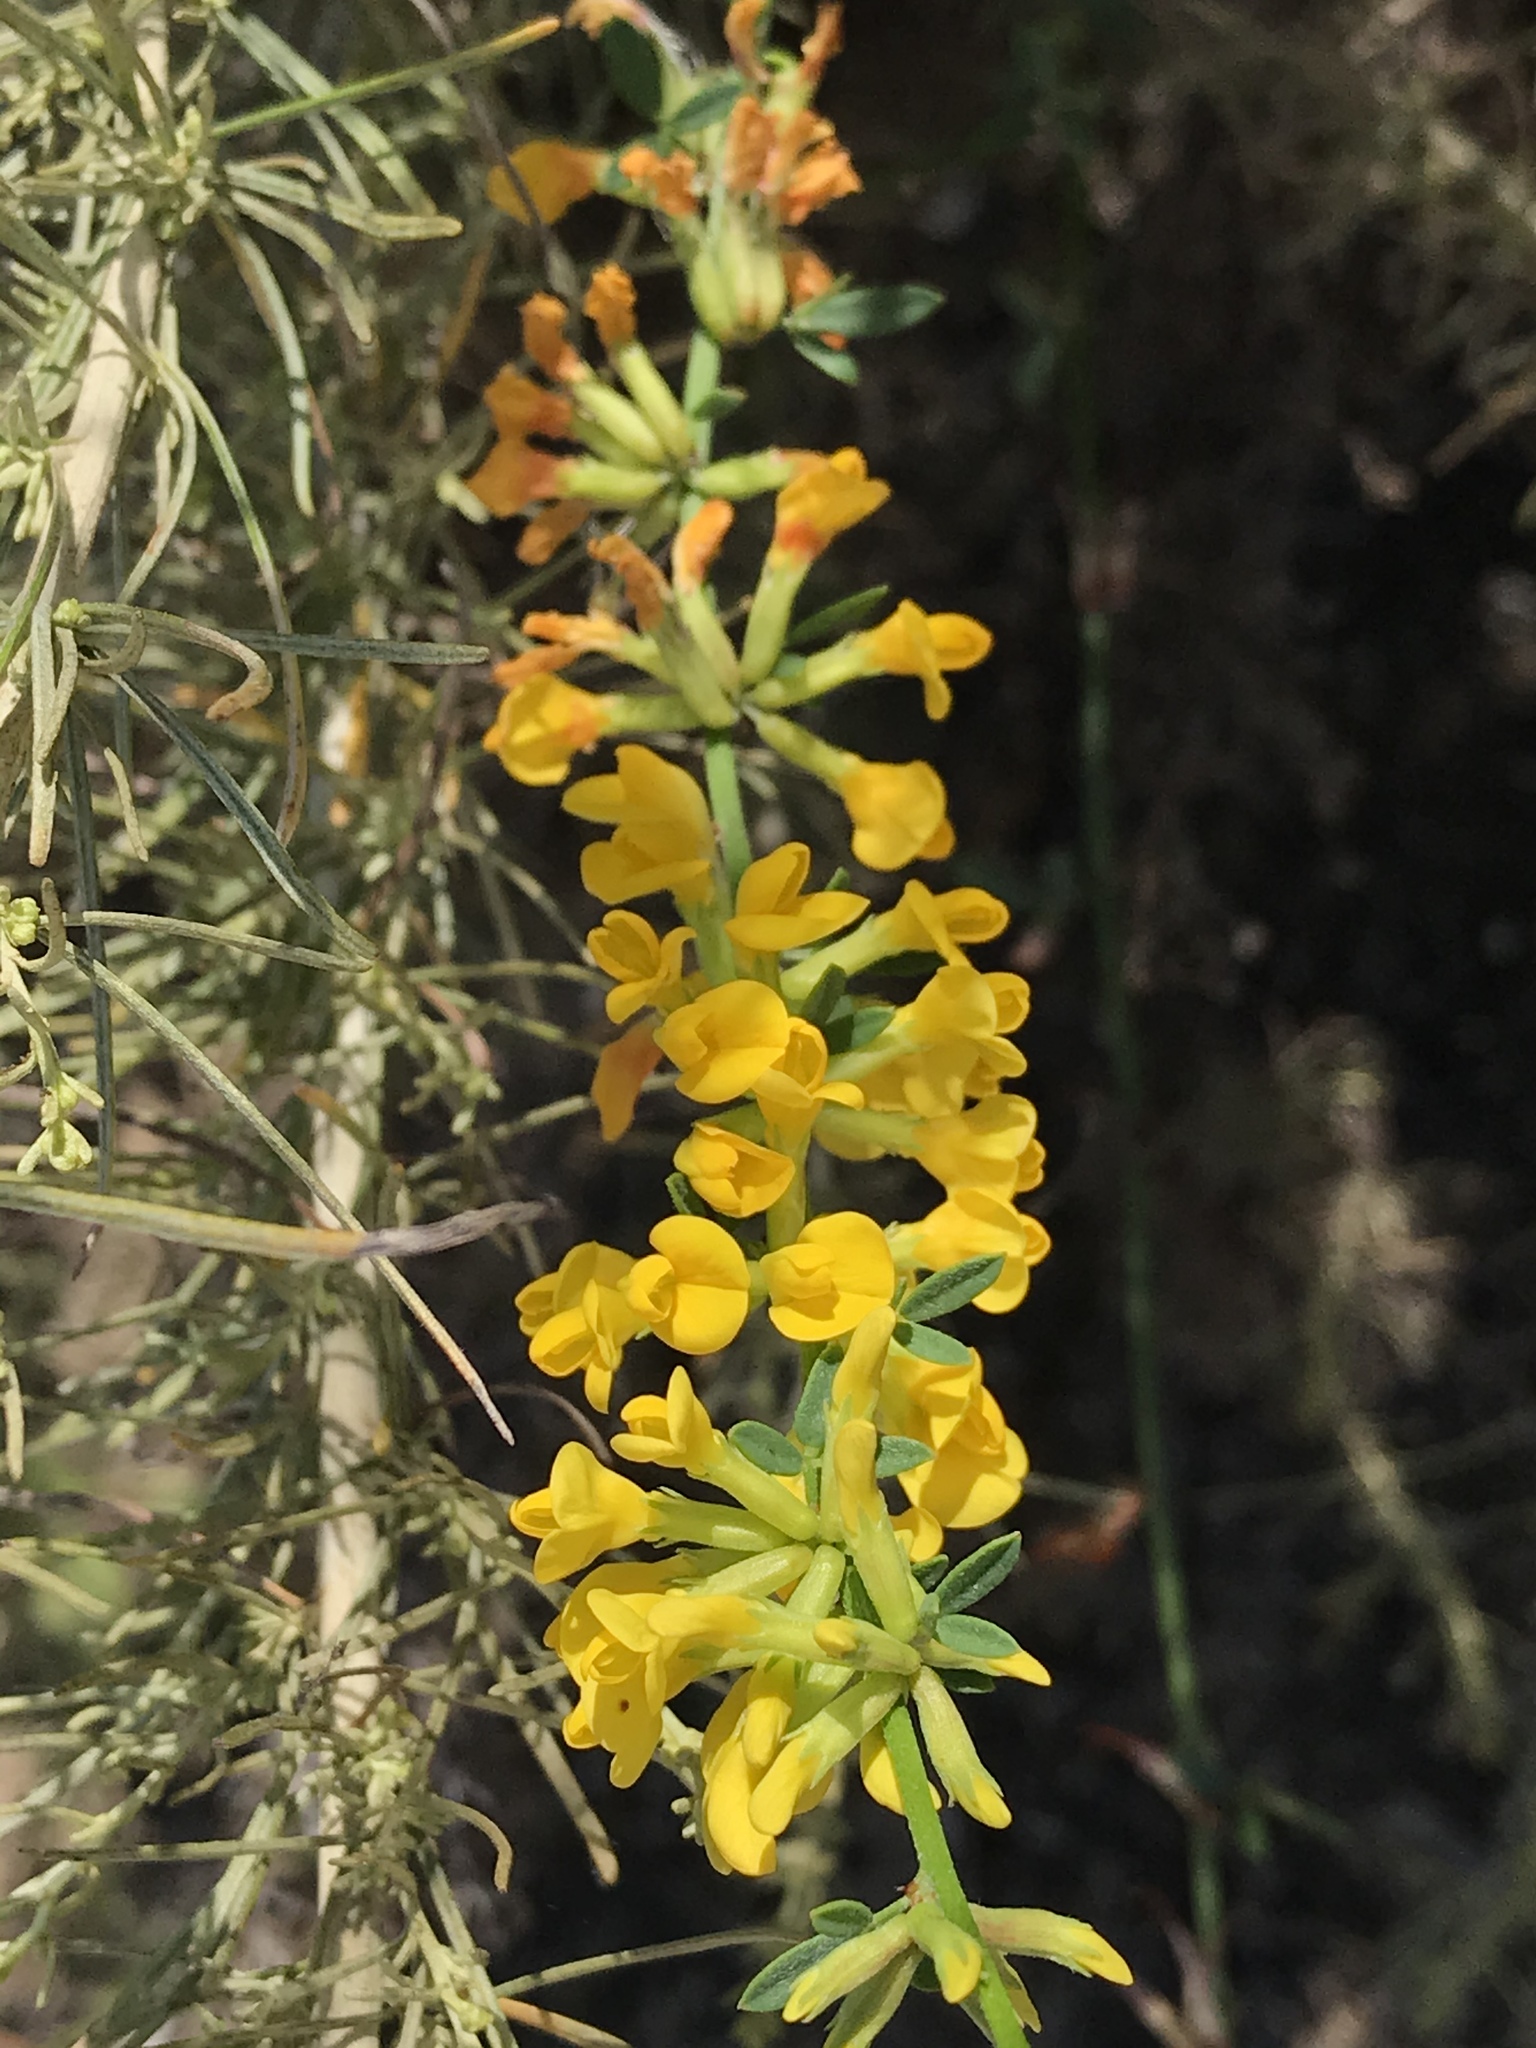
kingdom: Plantae
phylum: Tracheophyta
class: Magnoliopsida
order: Fabales
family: Fabaceae
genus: Acmispon
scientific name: Acmispon glaber
